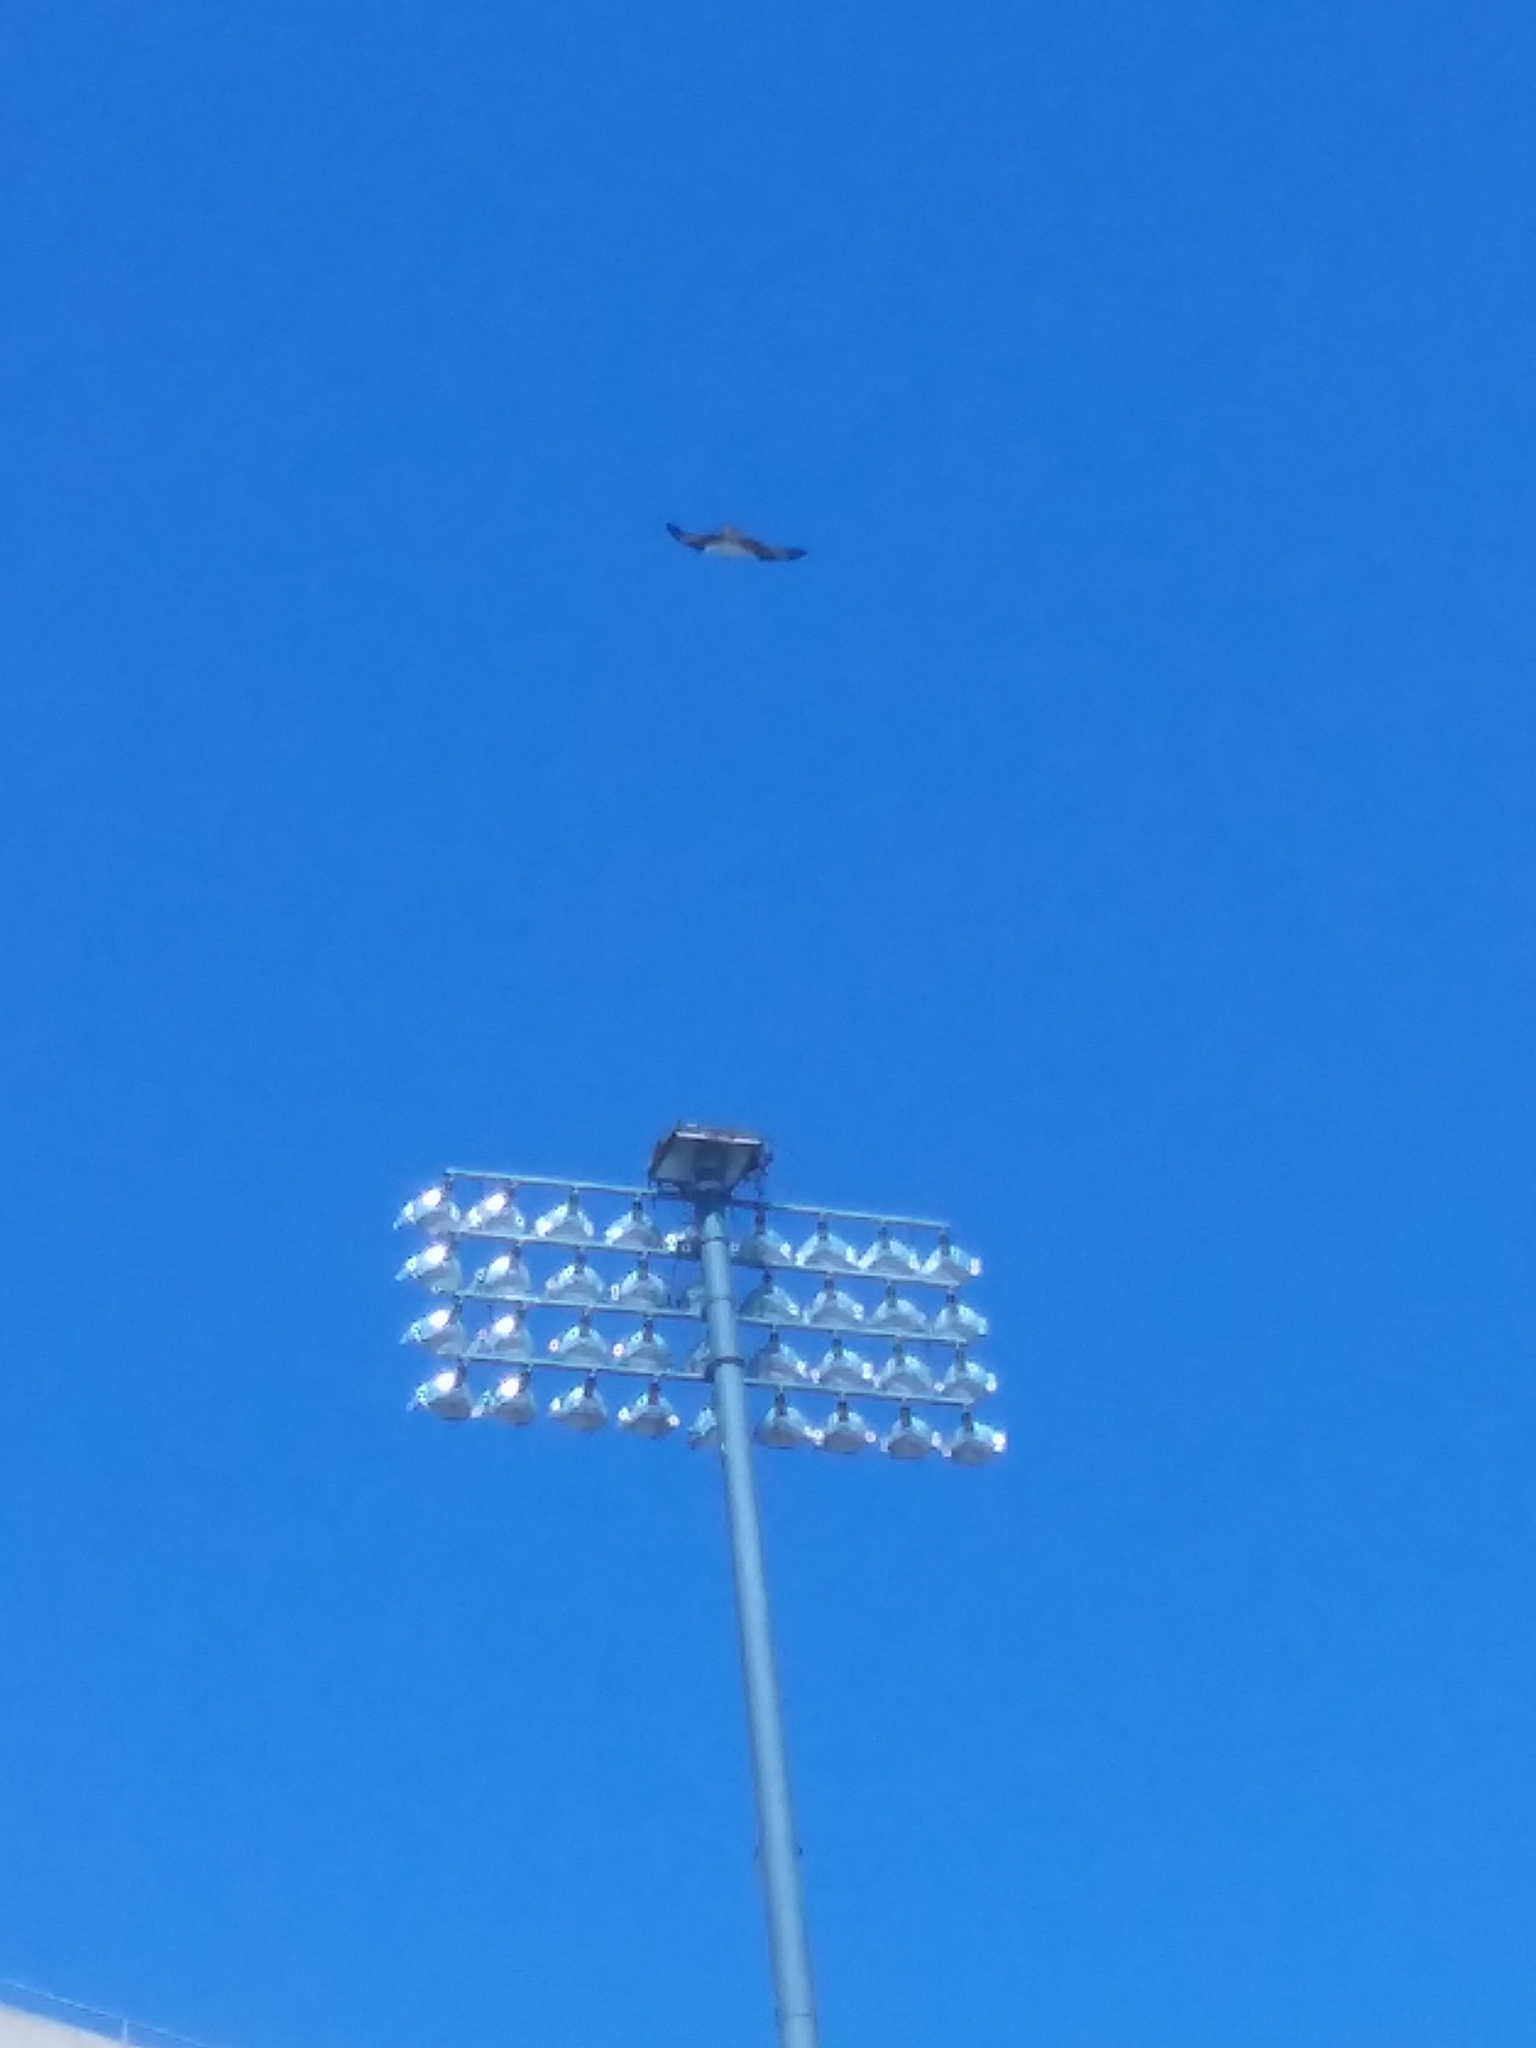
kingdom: Animalia
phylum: Chordata
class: Aves
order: Accipitriformes
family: Pandionidae
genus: Pandion
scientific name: Pandion haliaetus
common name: Osprey
